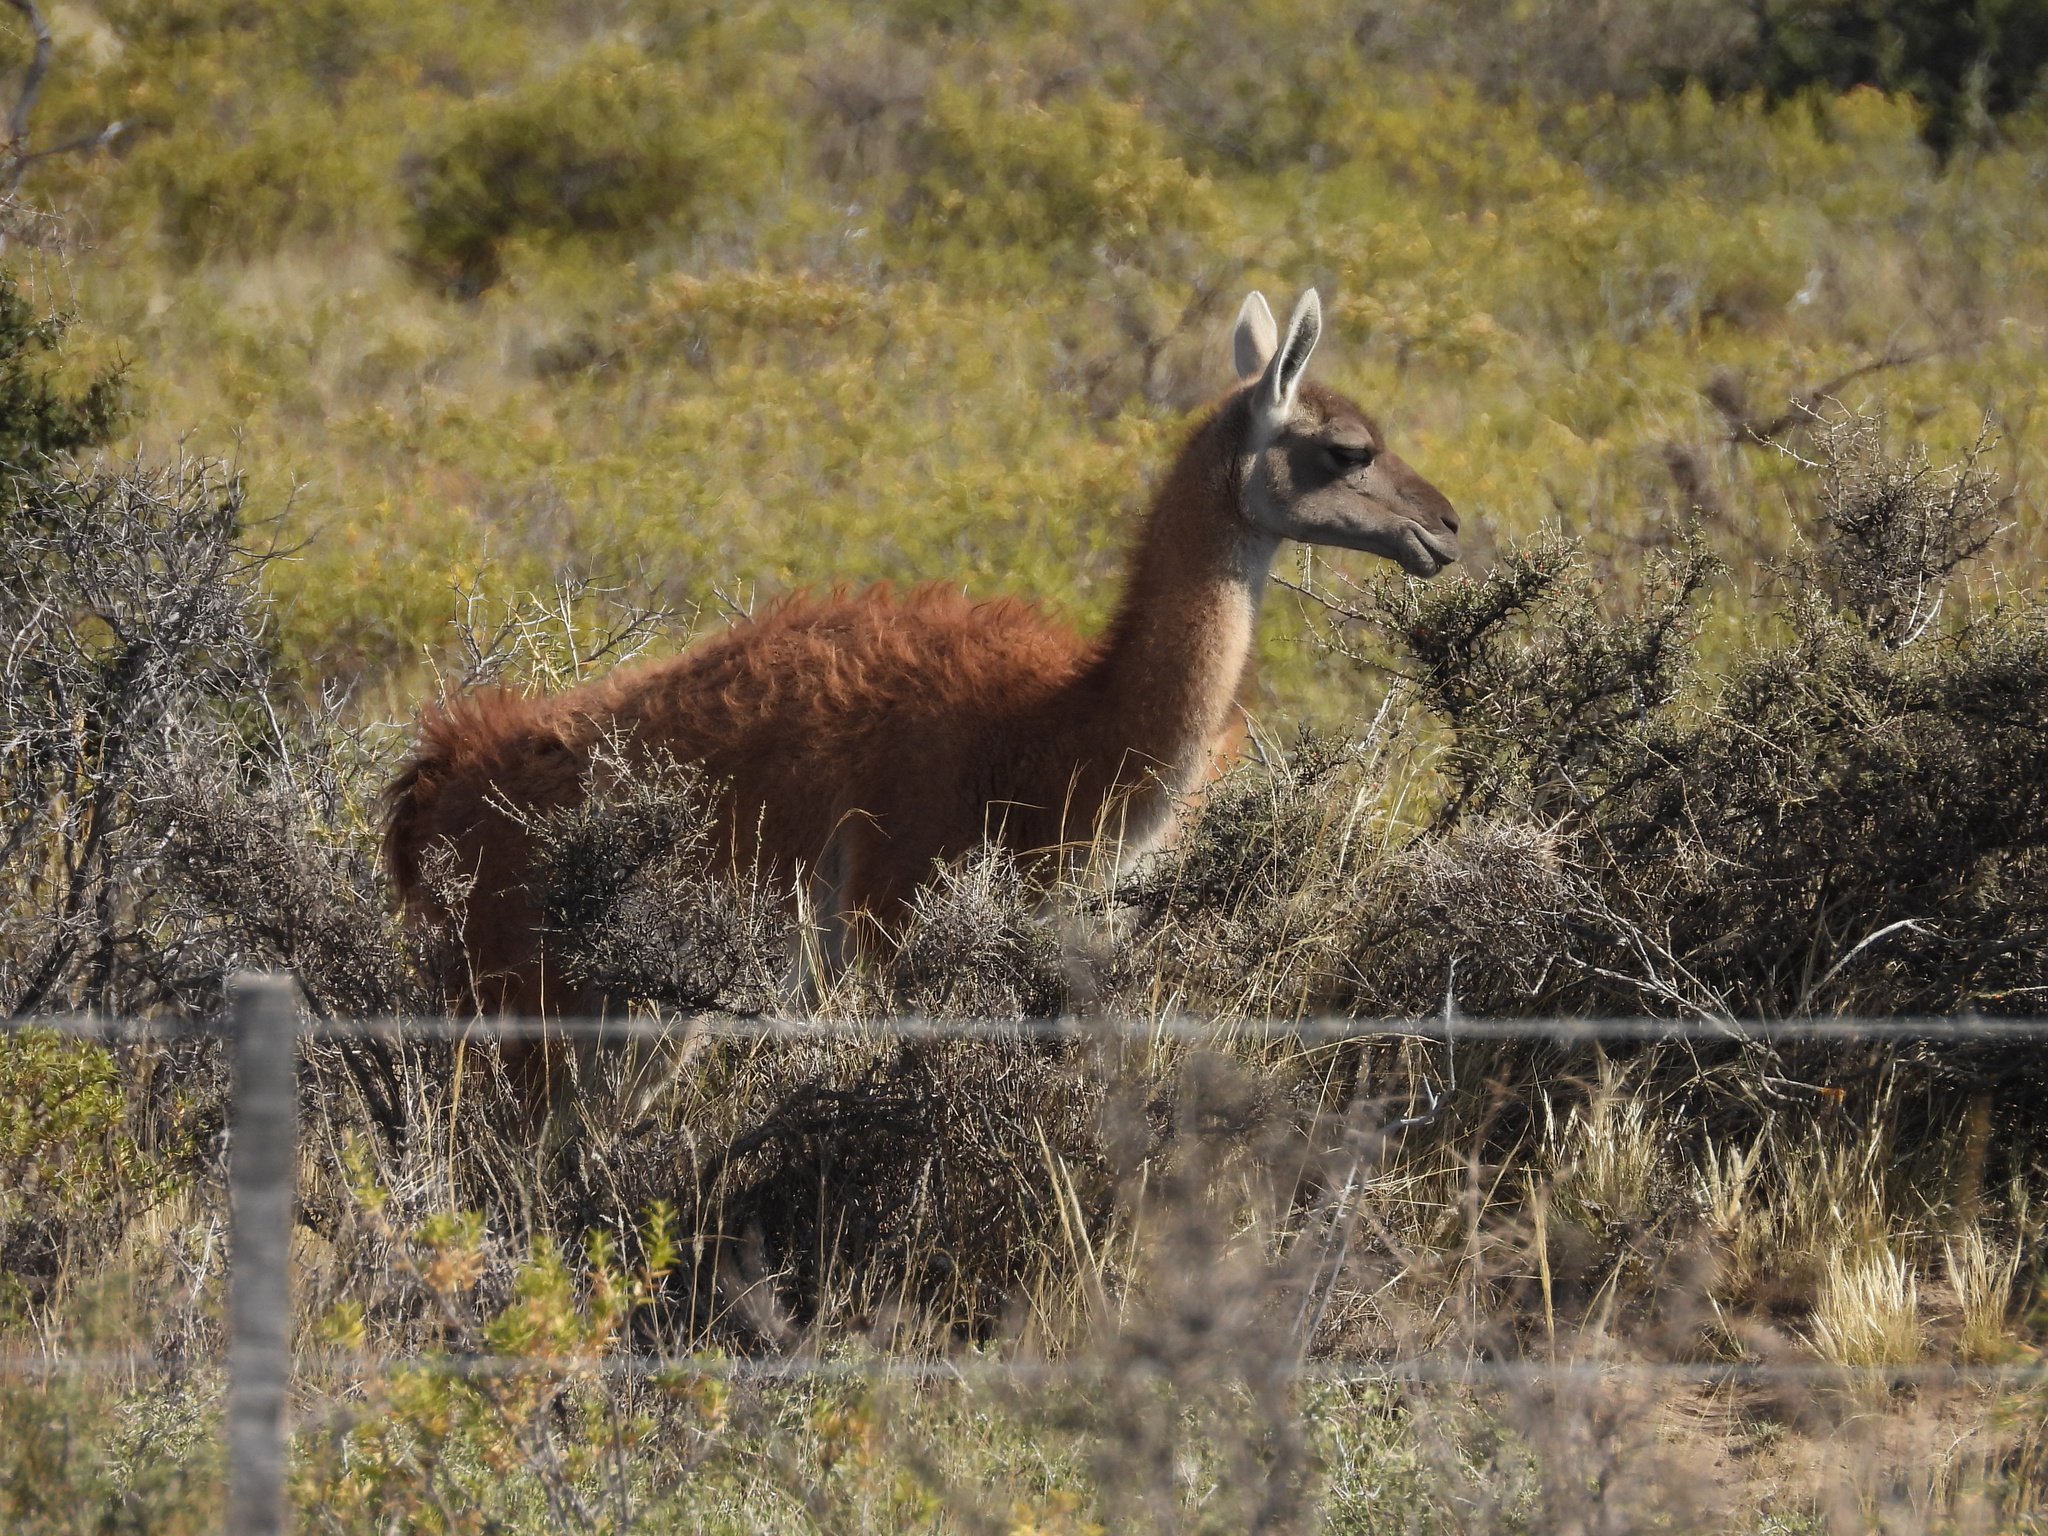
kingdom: Animalia
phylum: Chordata
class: Mammalia
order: Artiodactyla
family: Camelidae
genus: Lama
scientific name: Lama glama
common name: Llama
